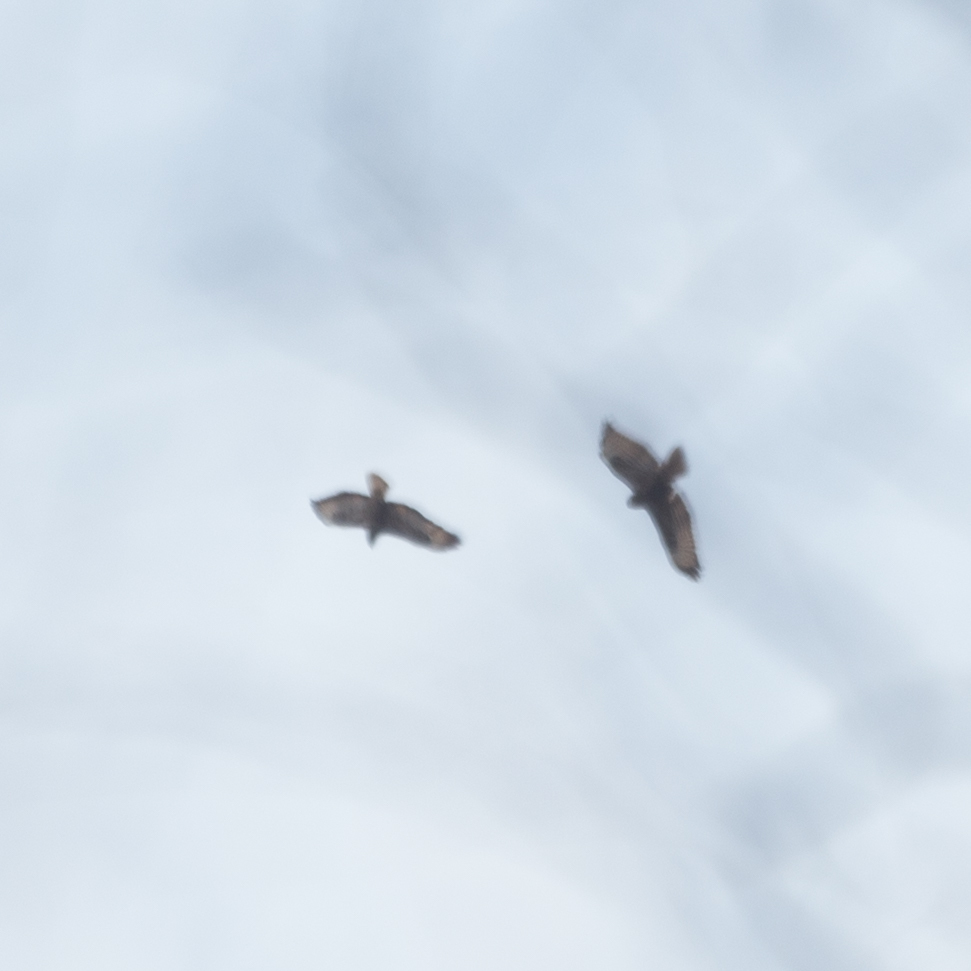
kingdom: Animalia
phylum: Chordata
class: Aves
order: Accipitriformes
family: Accipitridae
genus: Buteo
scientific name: Buteo buteo
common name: Common buzzard
